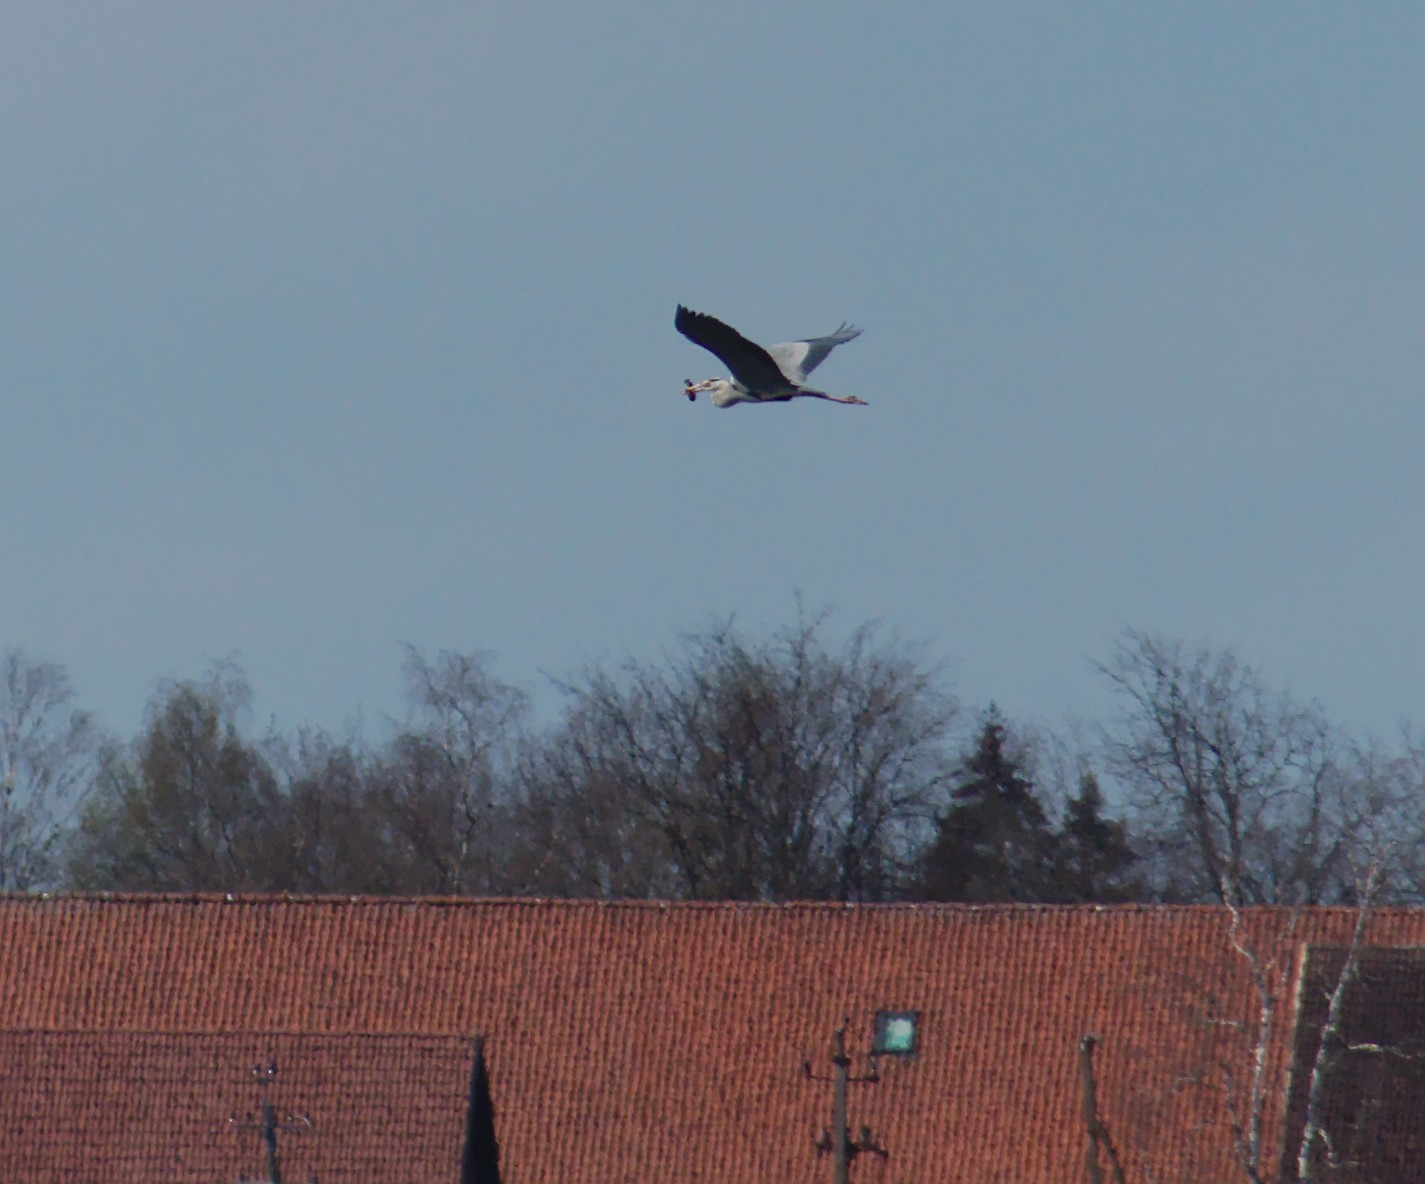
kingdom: Animalia
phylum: Chordata
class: Aves
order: Pelecaniformes
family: Ardeidae
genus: Ardea
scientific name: Ardea cinerea
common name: Grey heron
